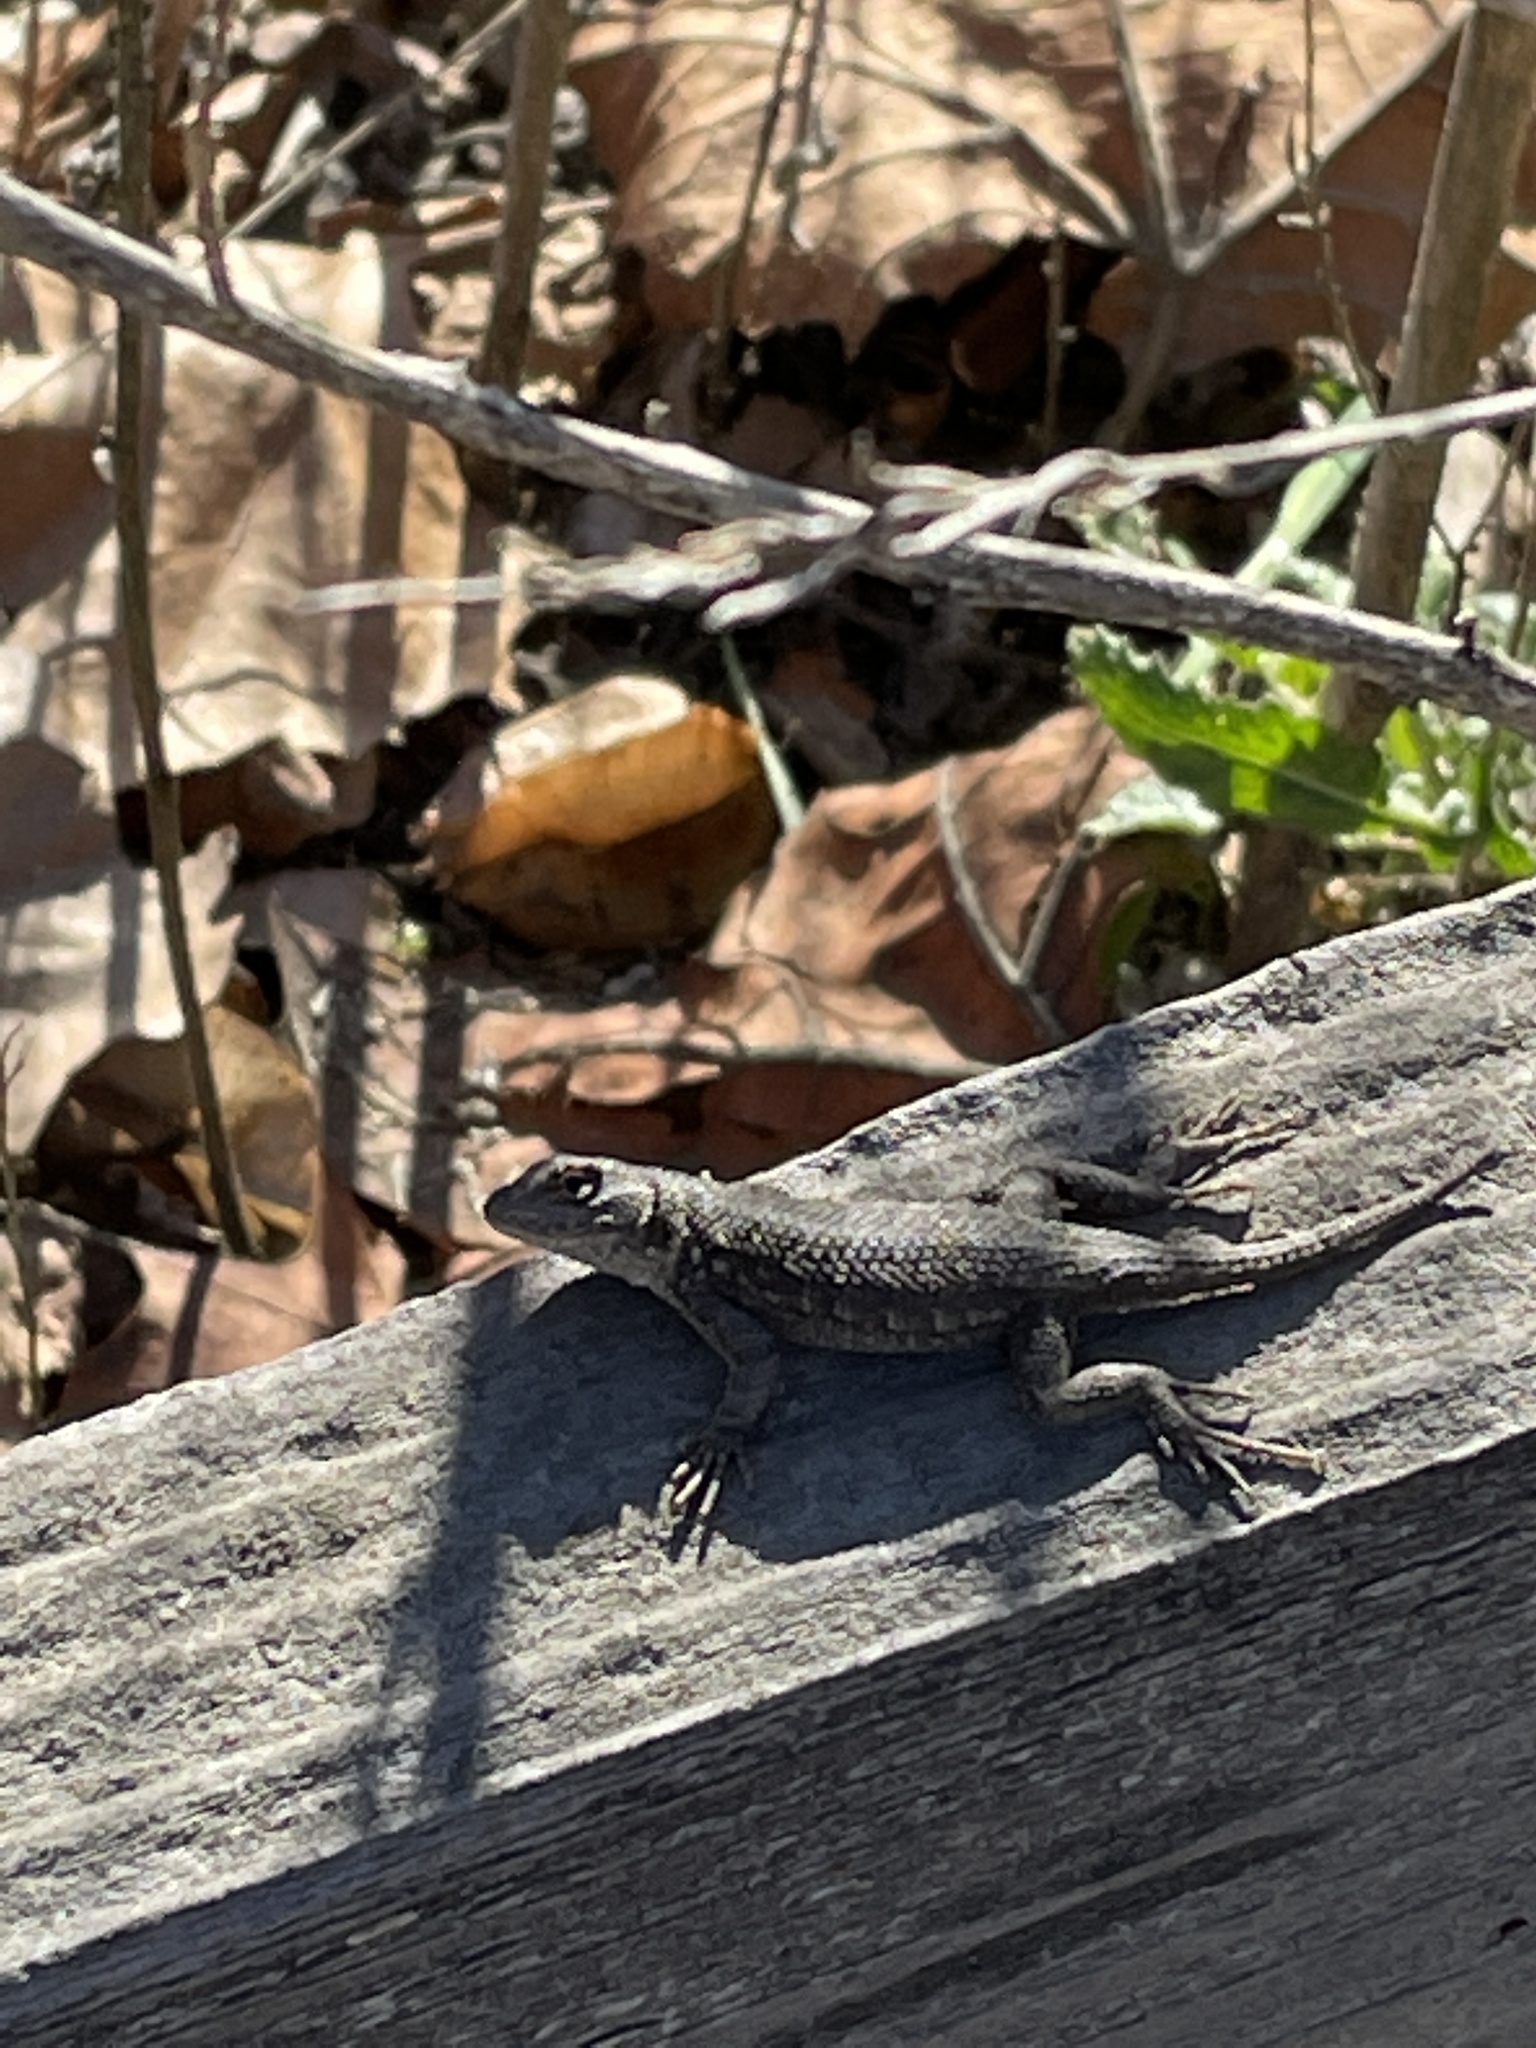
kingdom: Animalia
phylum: Chordata
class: Squamata
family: Phrynosomatidae
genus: Sceloporus
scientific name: Sceloporus occidentalis
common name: Western fence lizard
